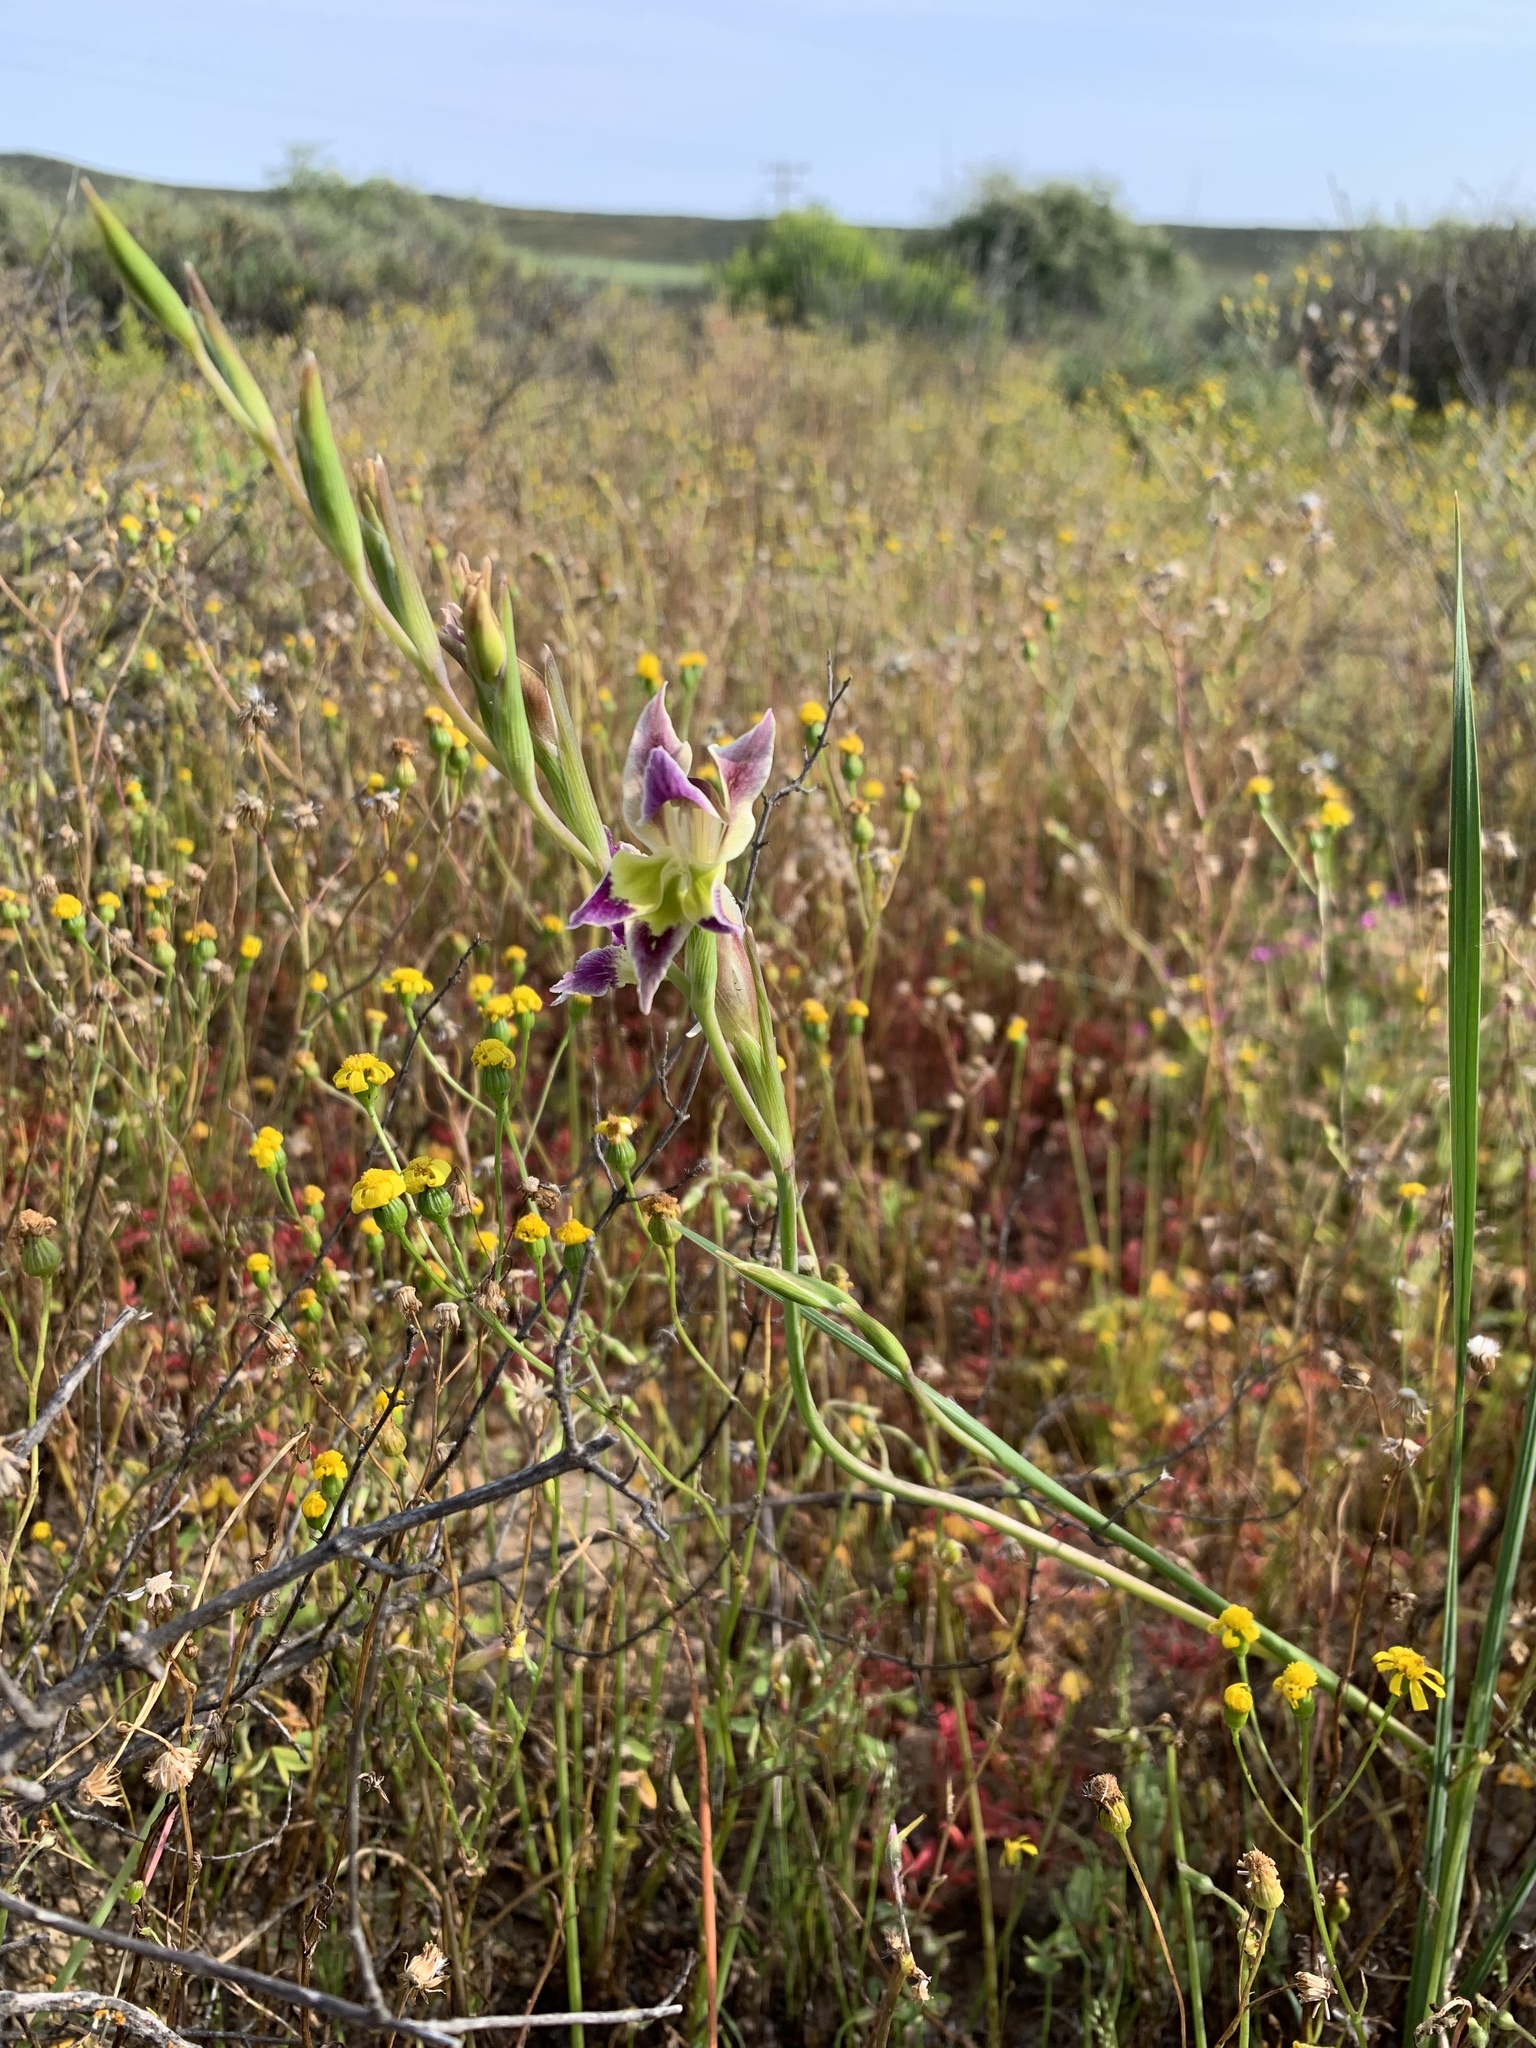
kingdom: Plantae
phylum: Tracheophyta
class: Liliopsida
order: Asparagales
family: Iridaceae
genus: Gladiolus
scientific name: Gladiolus venustus
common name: Purple kalkoentjie
